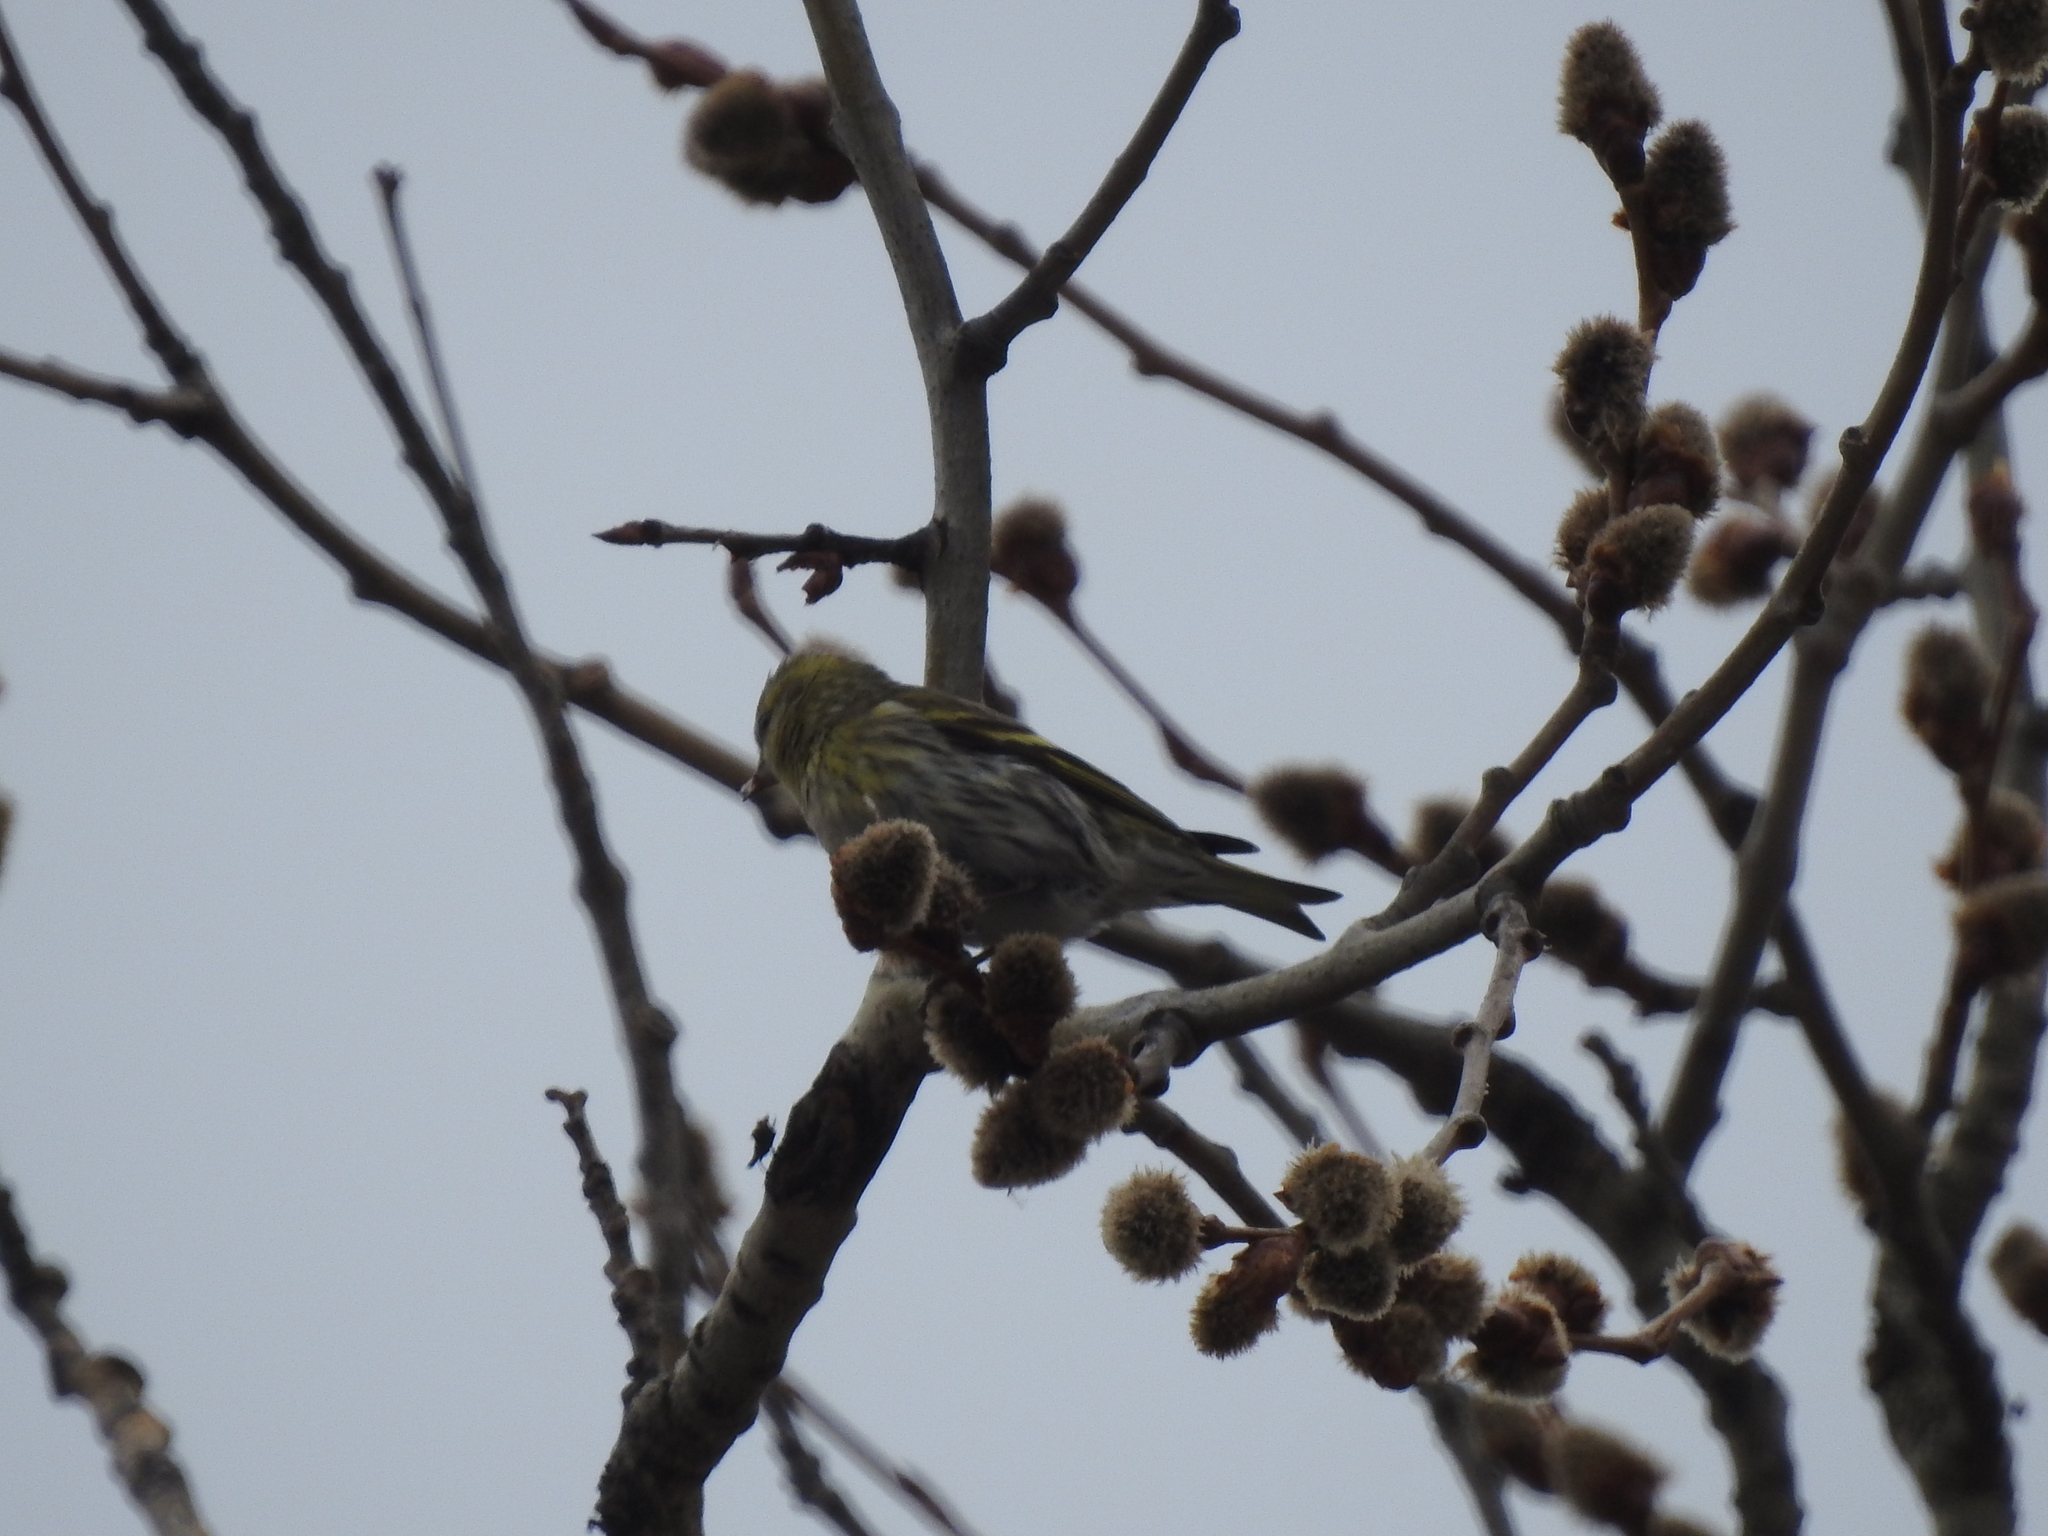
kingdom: Animalia
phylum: Chordata
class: Aves
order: Passeriformes
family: Fringillidae
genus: Spinus
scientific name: Spinus spinus
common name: Eurasian siskin
